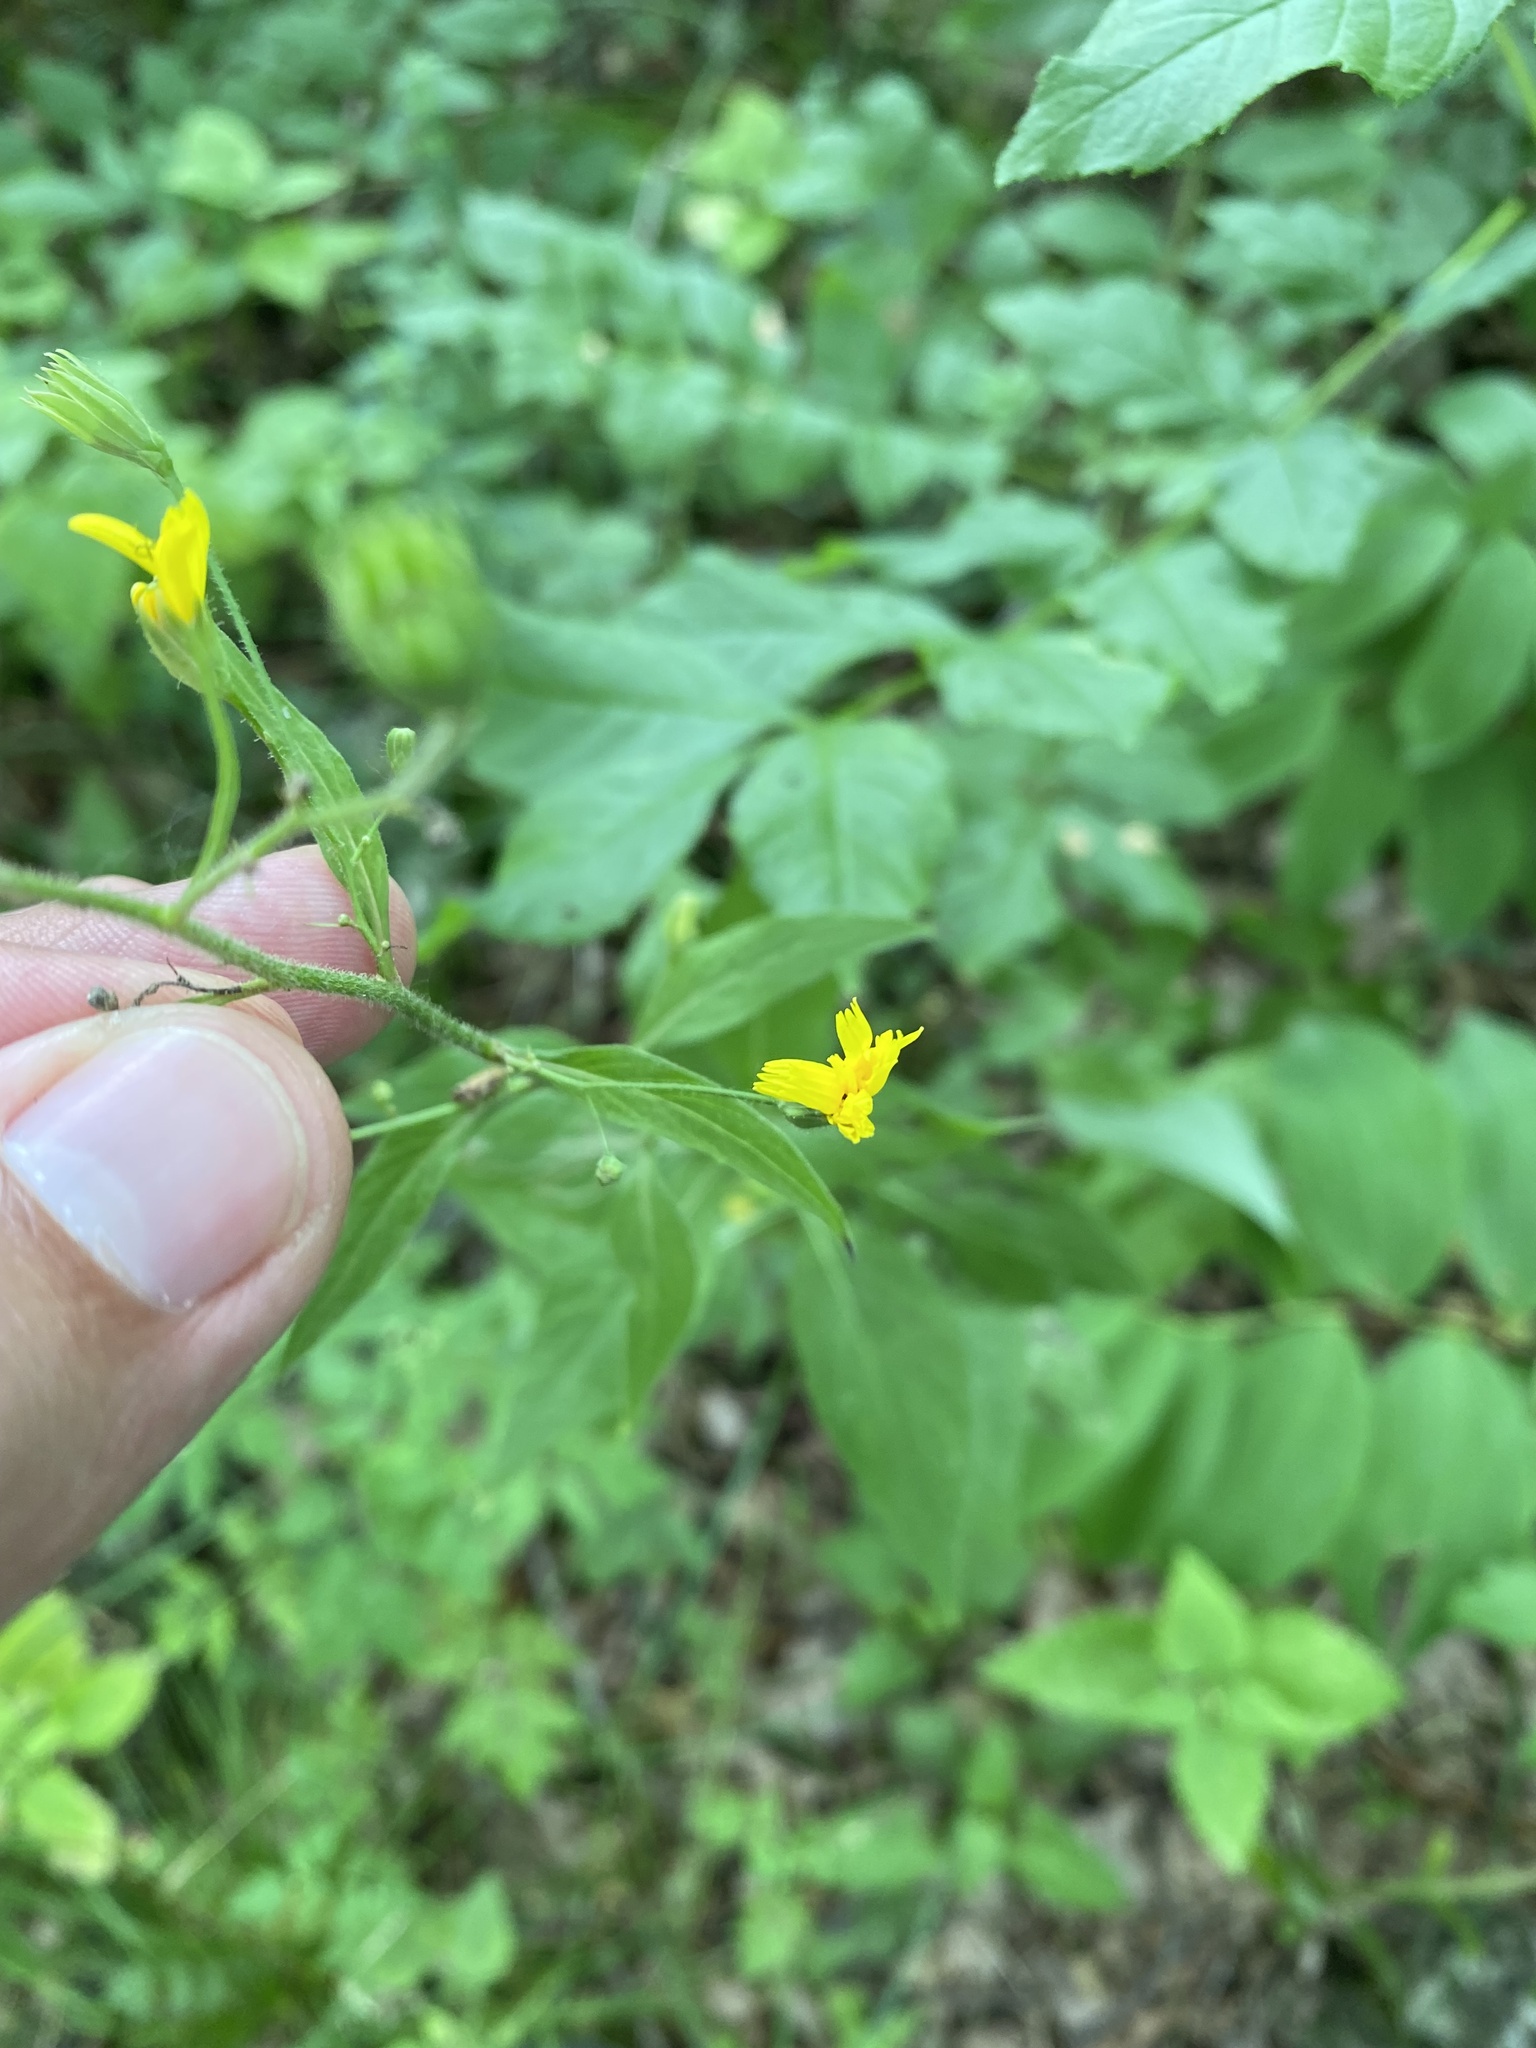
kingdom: Plantae
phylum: Tracheophyta
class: Magnoliopsida
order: Asterales
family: Asteraceae
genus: Lapsana
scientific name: Lapsana communis
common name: Nipplewort
